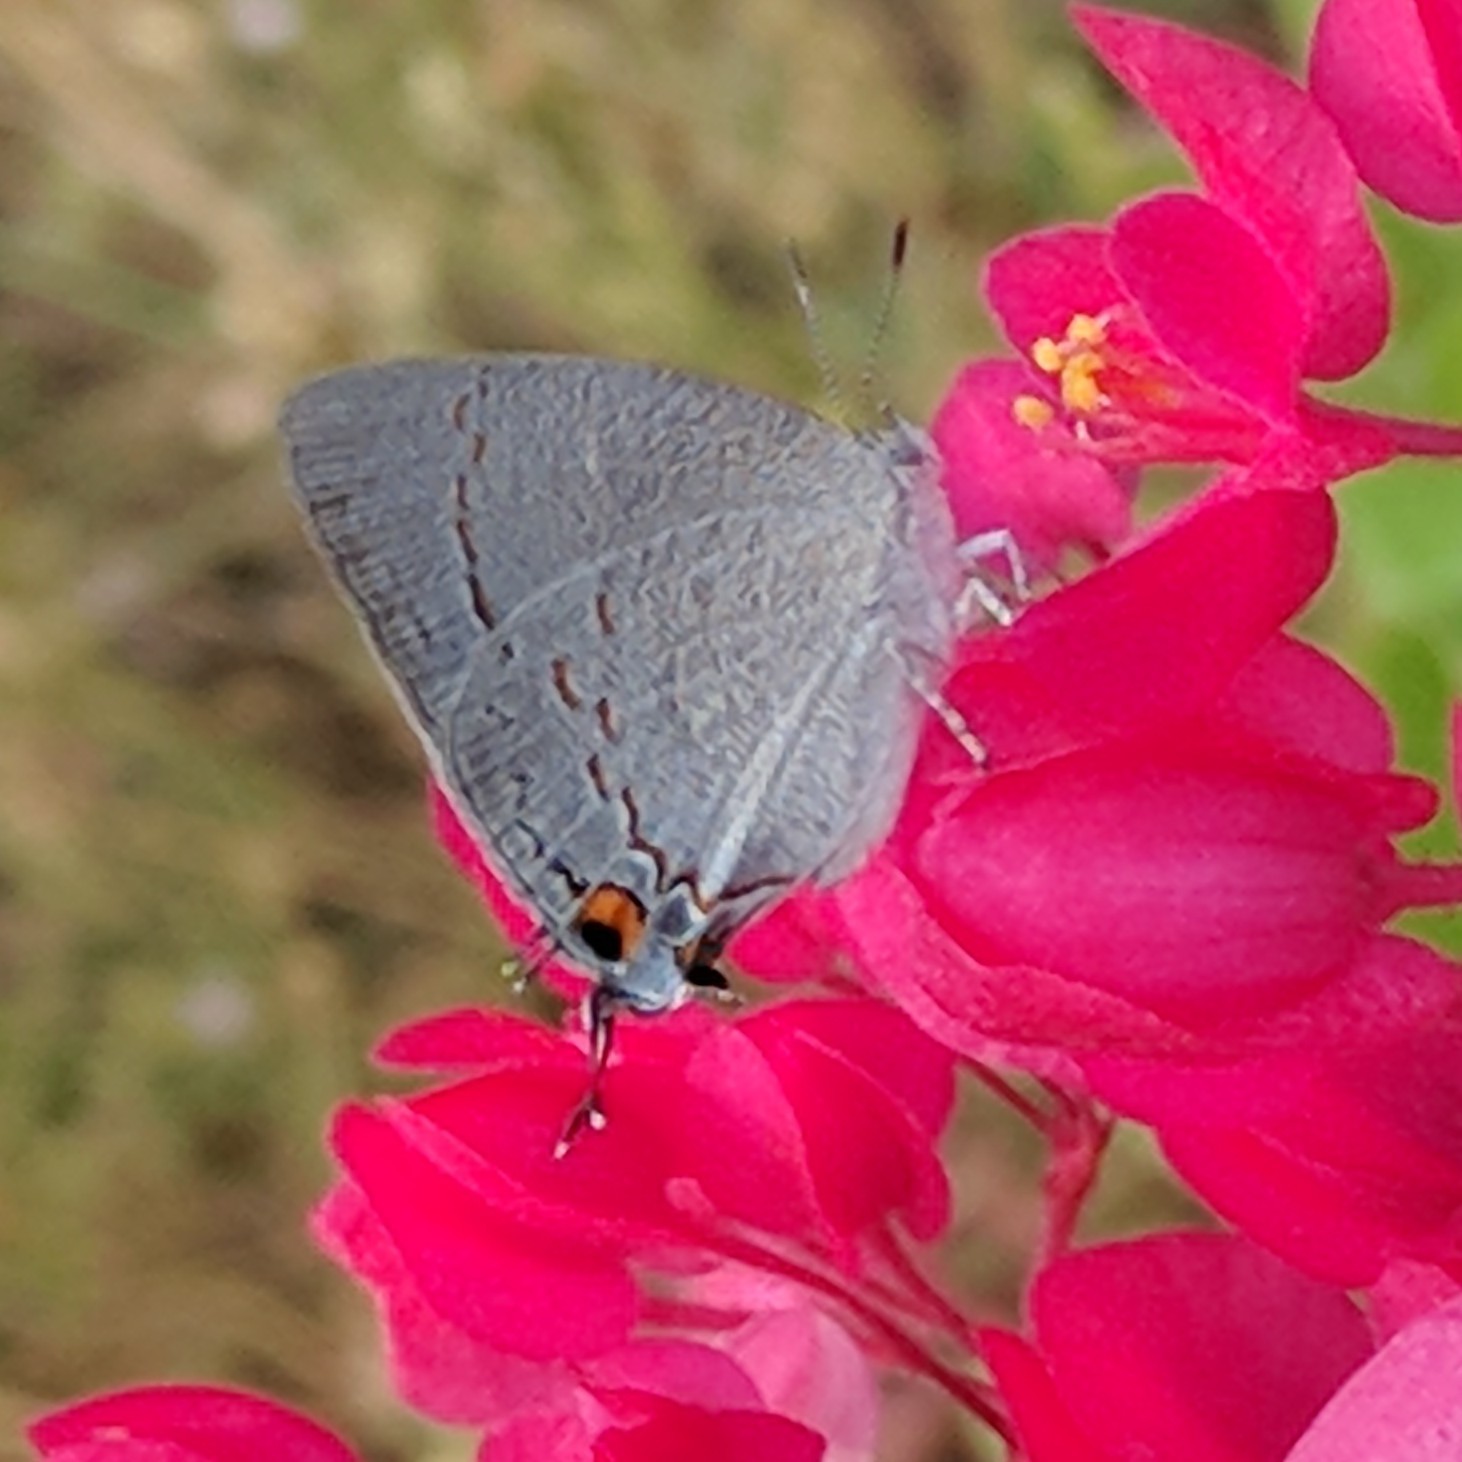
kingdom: Animalia
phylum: Arthropoda
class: Insecta
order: Lepidoptera
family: Lycaenidae
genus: Hypostrymon
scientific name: Hypostrymon critola
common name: Sonoran hairstreak
